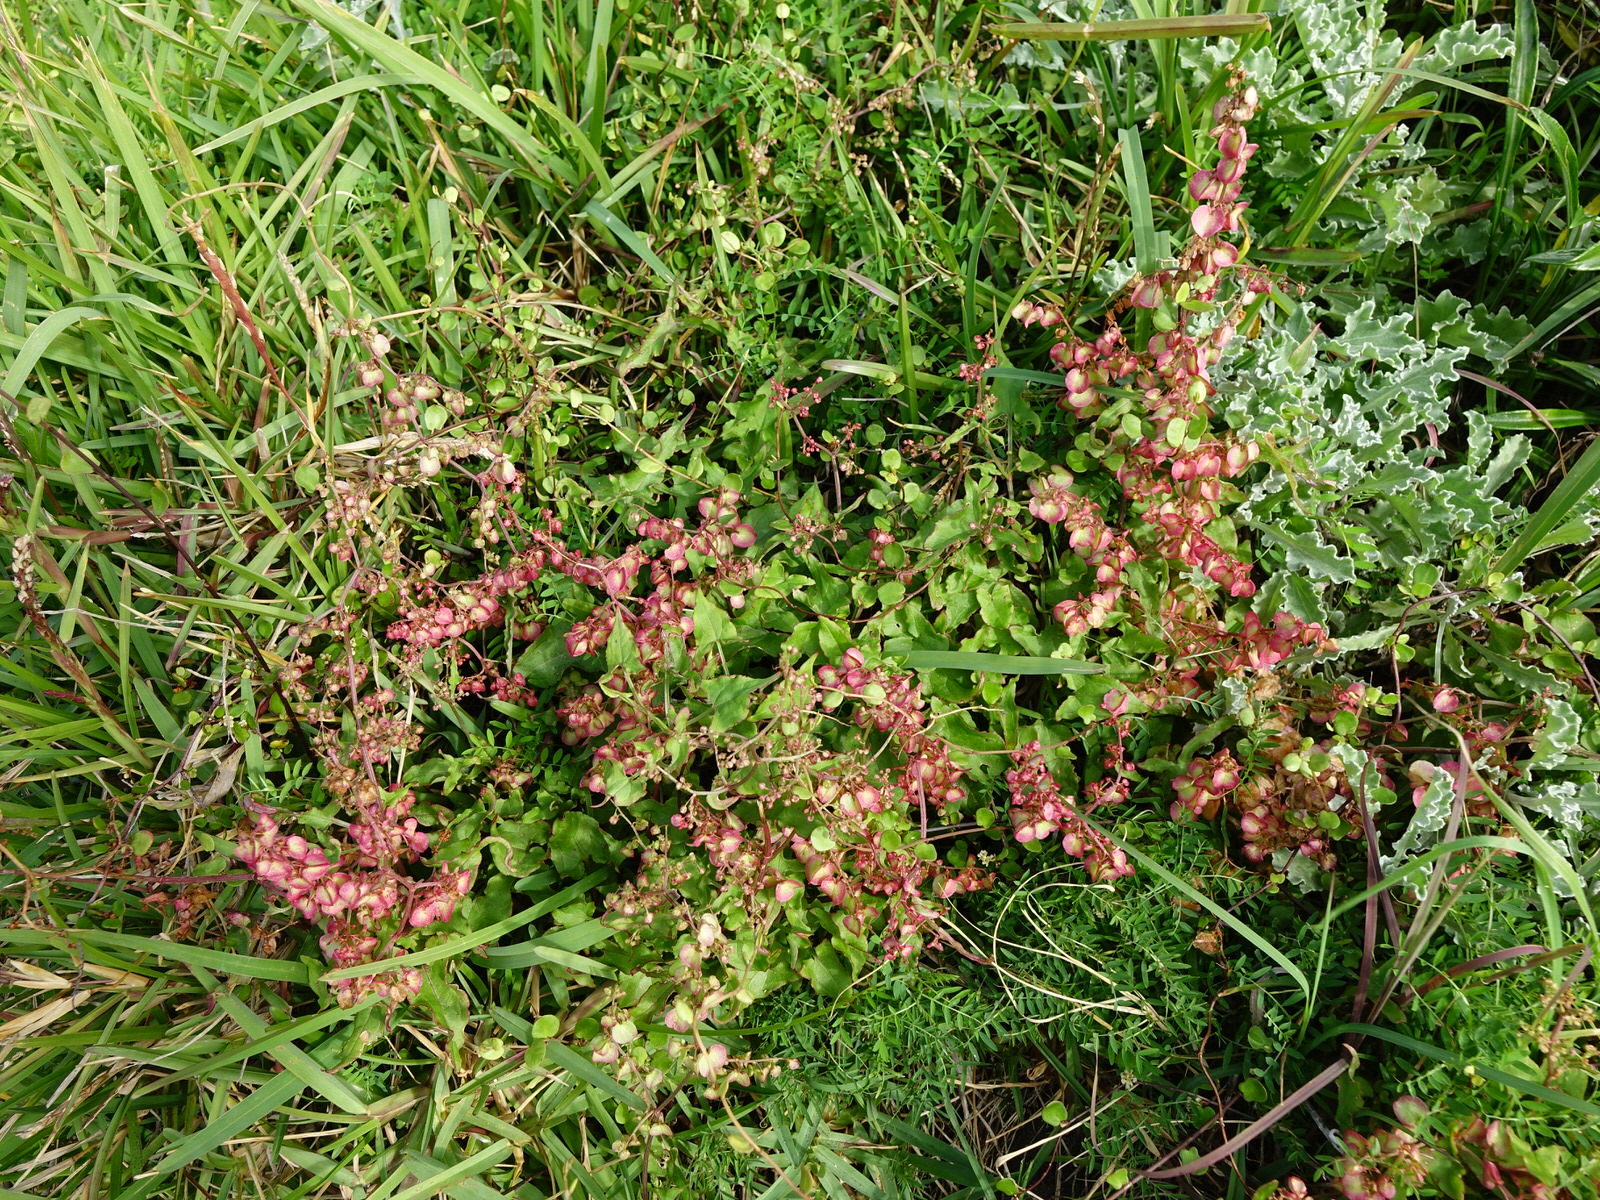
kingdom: Plantae
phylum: Tracheophyta
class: Magnoliopsida
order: Caryophyllales
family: Polygonaceae
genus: Rumex
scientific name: Rumex sagittatus
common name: Climbing dock
